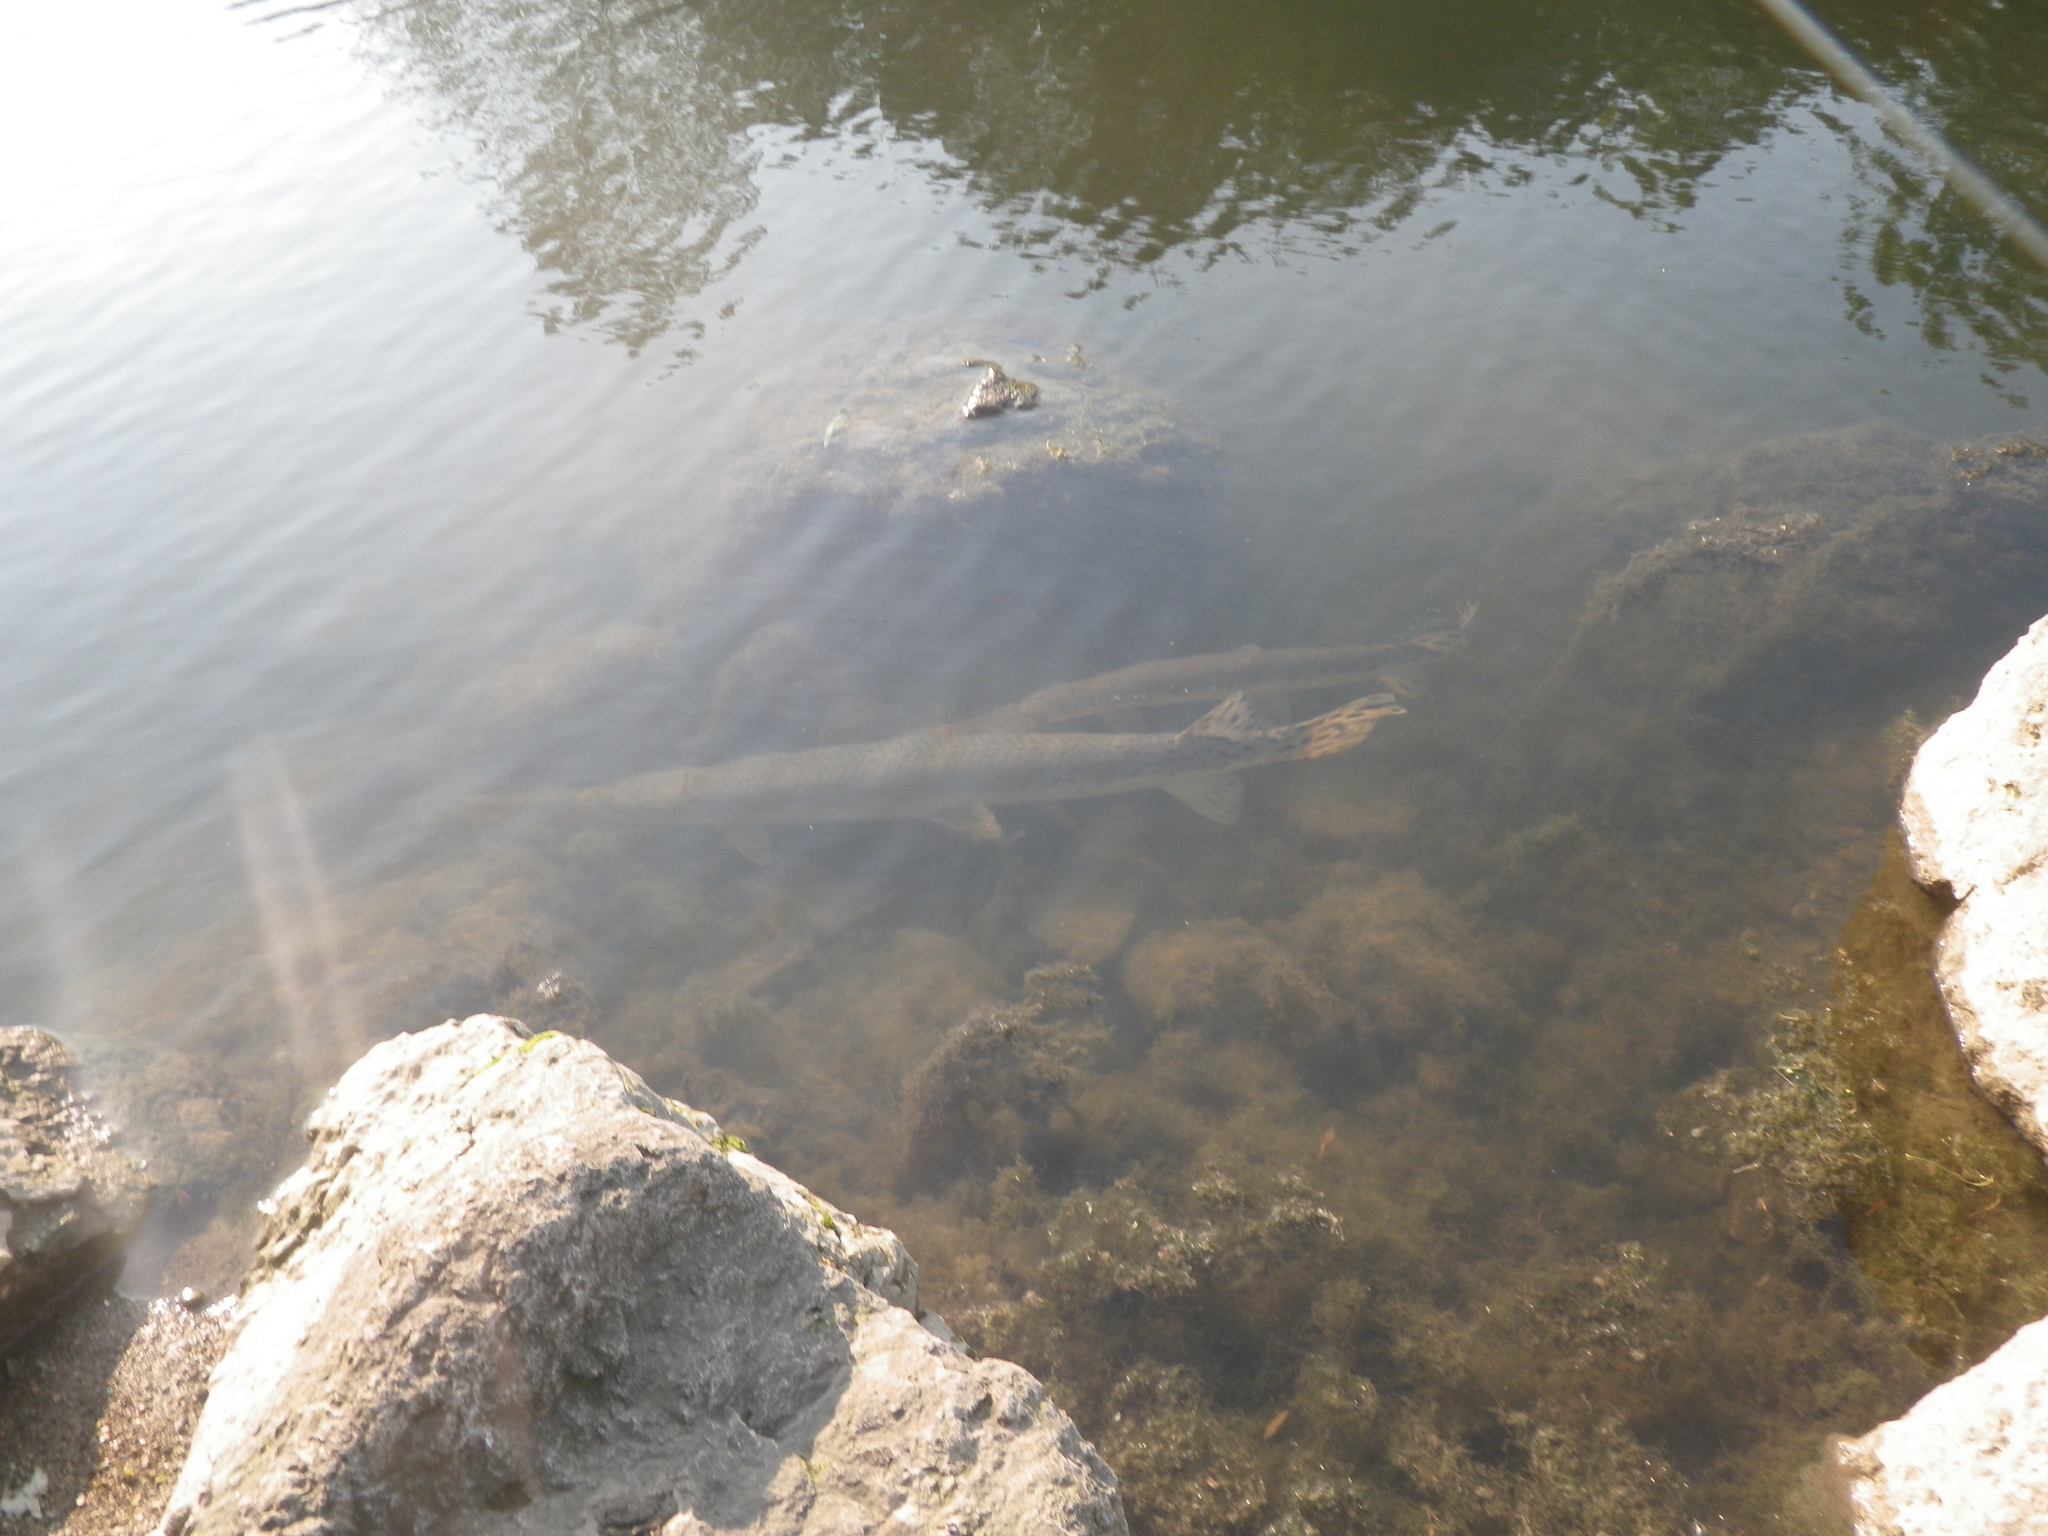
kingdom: Animalia
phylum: Chordata
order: Lepisosteiformes
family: Lepisosteidae
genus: Lepisosteus
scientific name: Lepisosteus osseus
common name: Longnose gar
